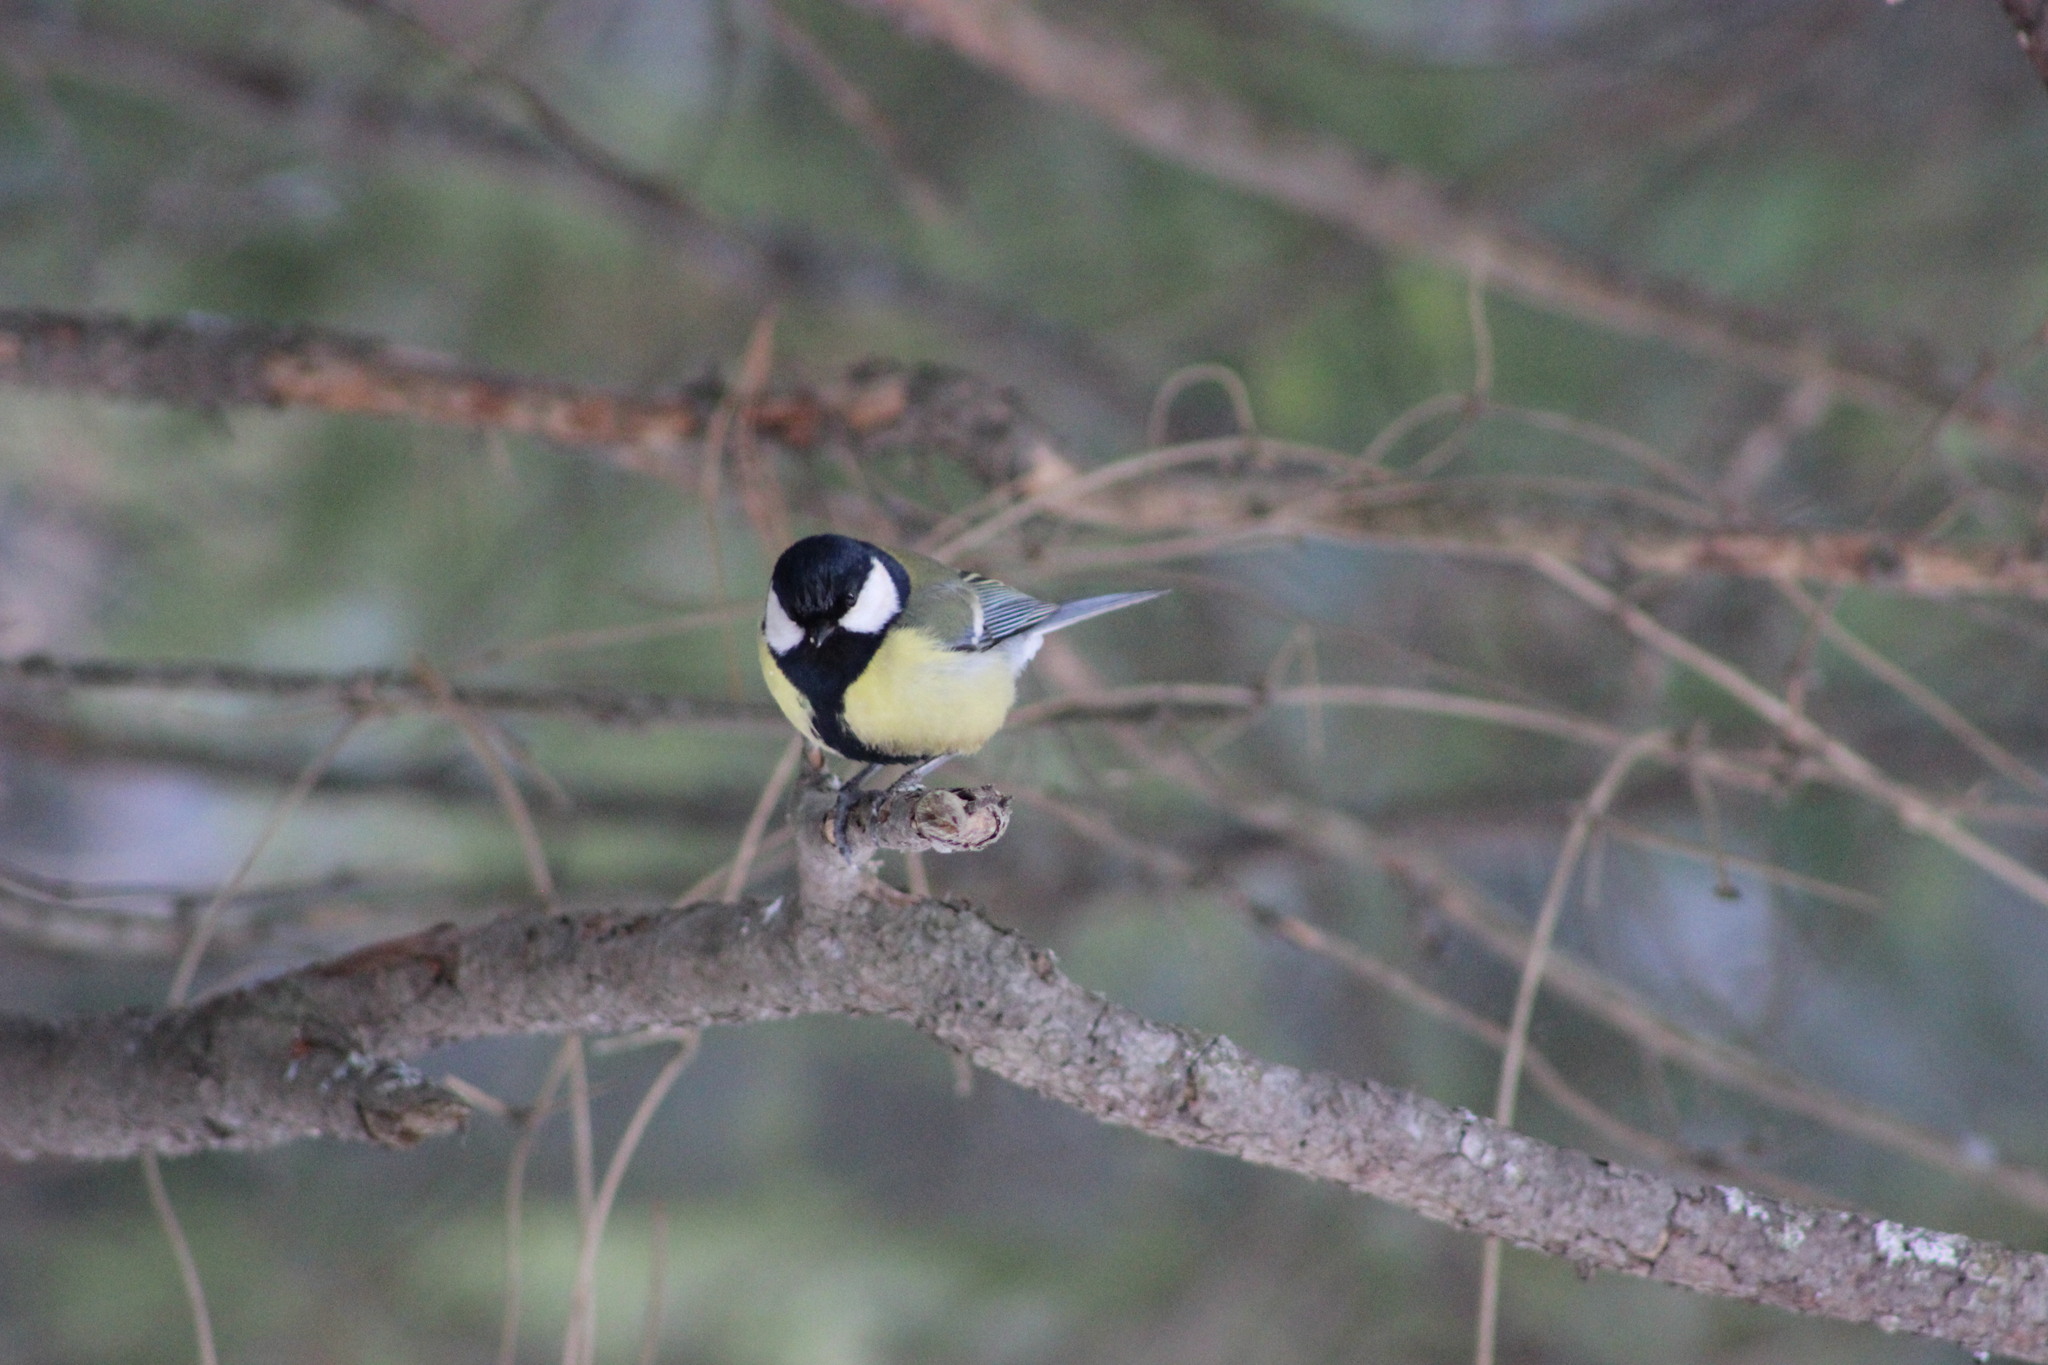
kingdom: Animalia
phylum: Chordata
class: Aves
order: Passeriformes
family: Paridae
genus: Parus
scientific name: Parus major
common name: Great tit
